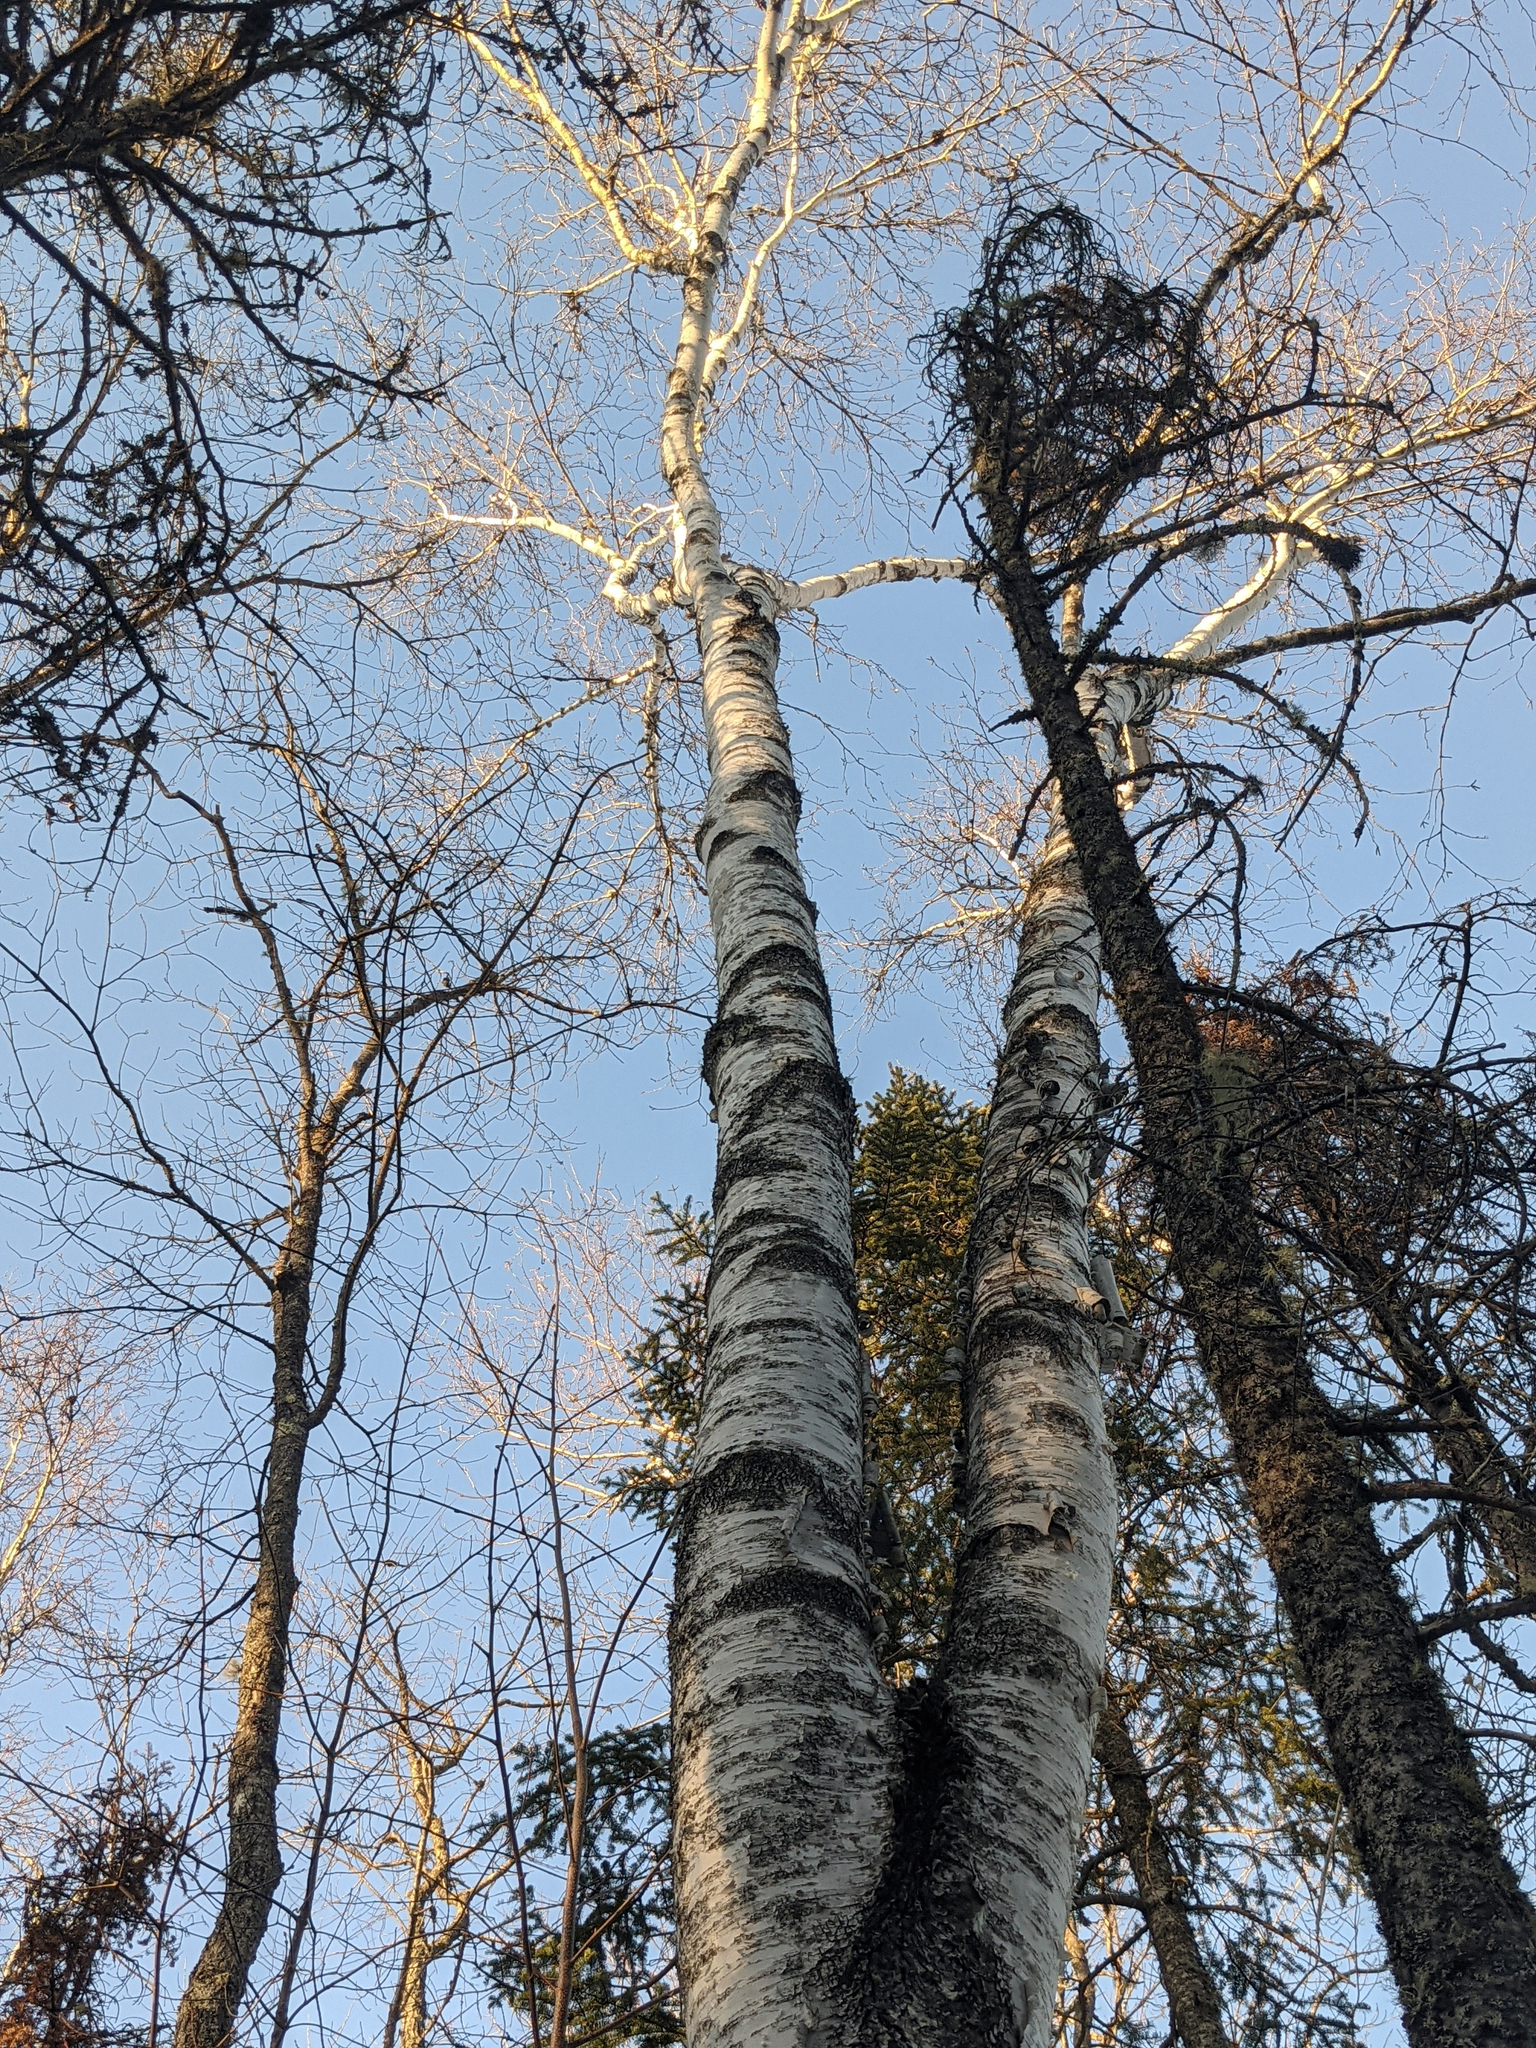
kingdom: Plantae
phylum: Tracheophyta
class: Magnoliopsida
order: Fagales
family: Betulaceae
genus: Betula
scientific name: Betula papyrifera
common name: Paper birch
